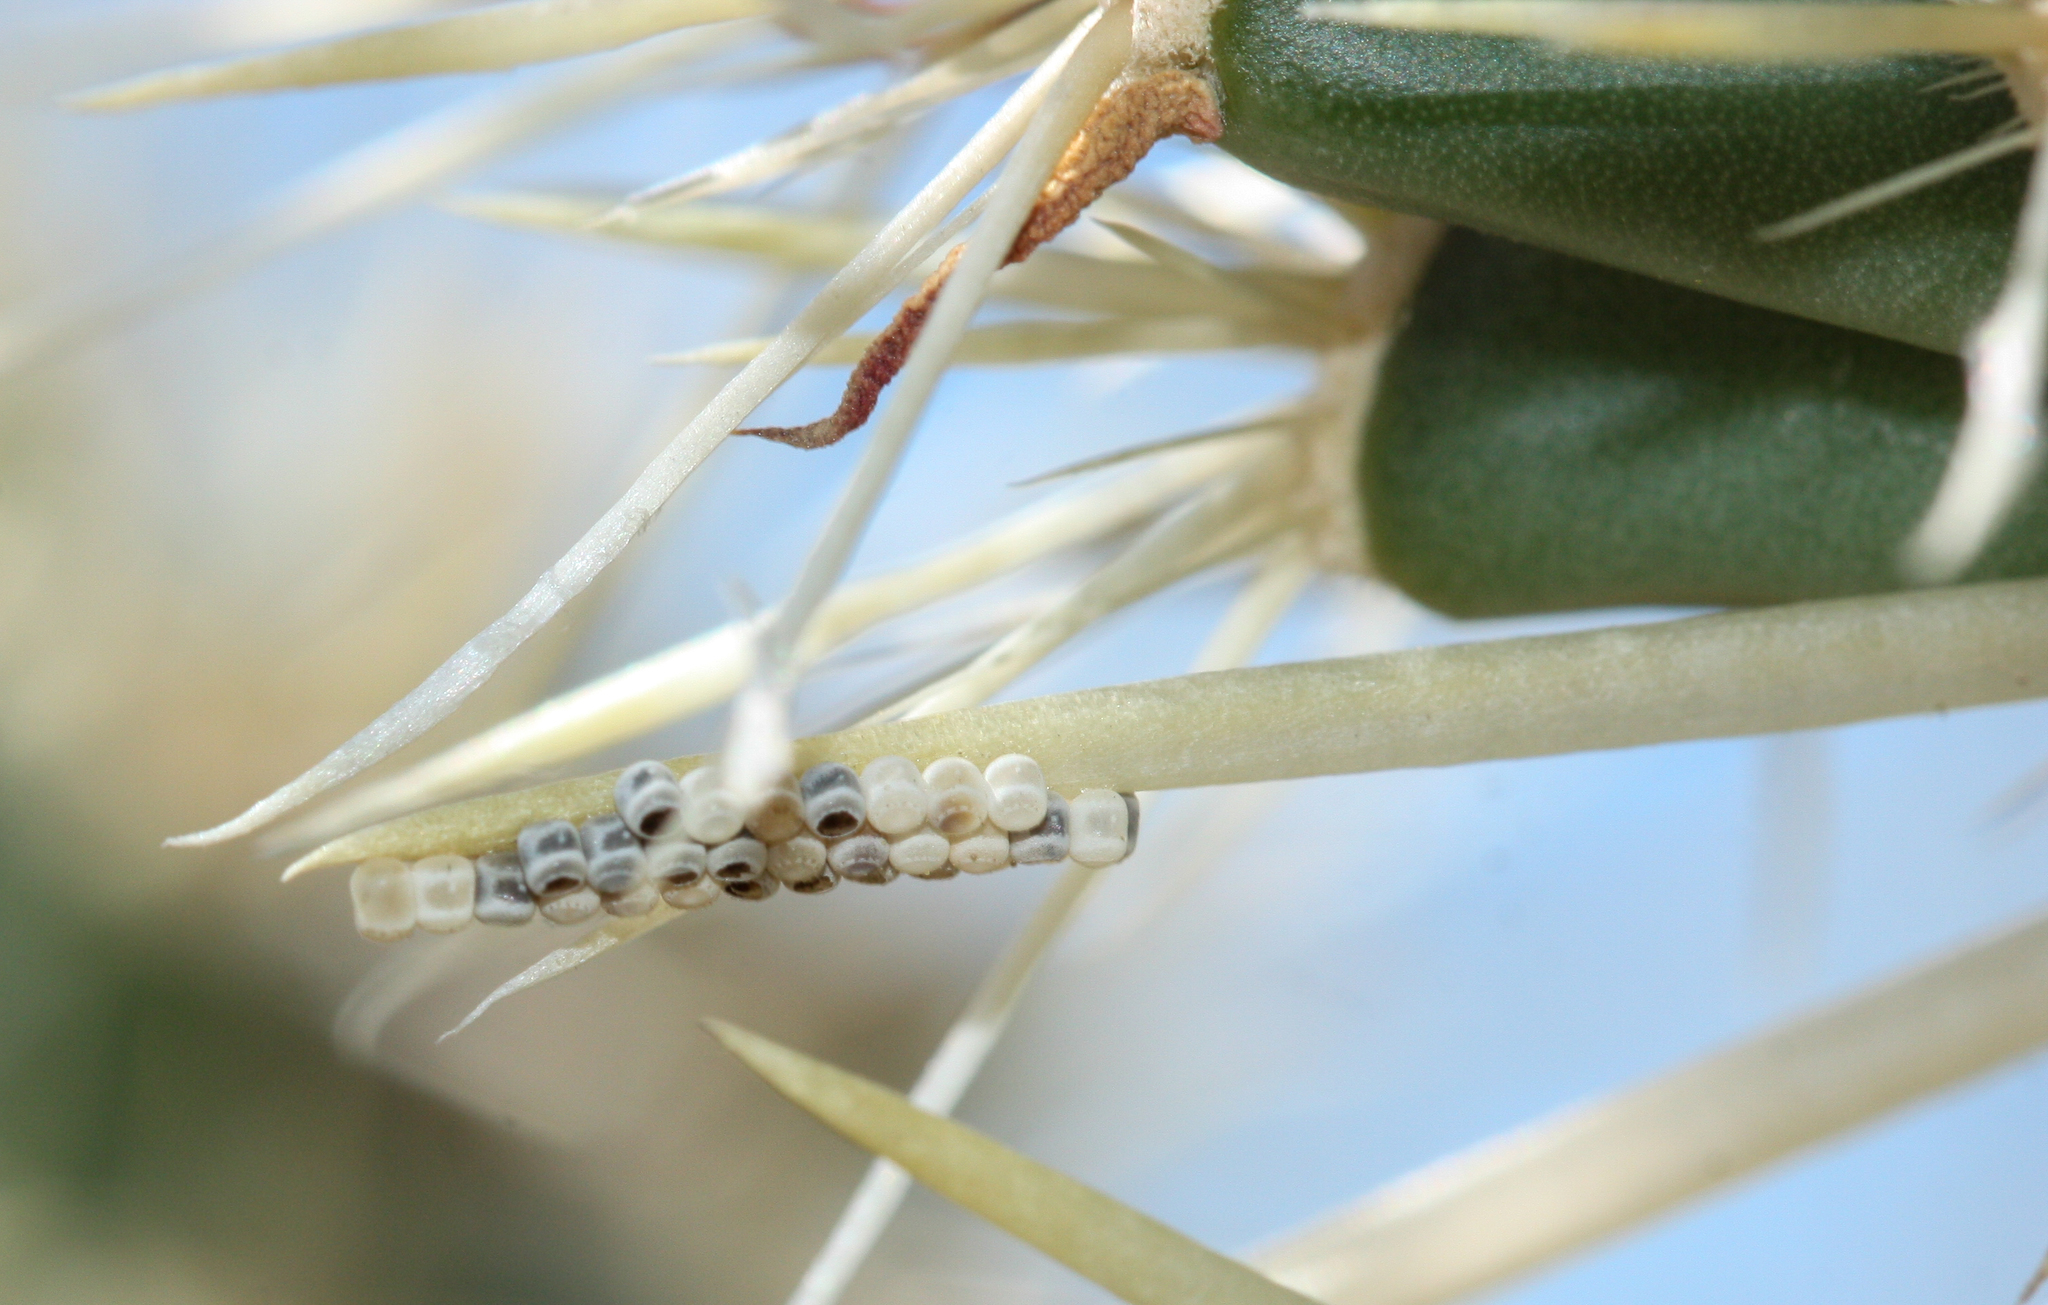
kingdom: Animalia
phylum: Arthropoda
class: Insecta
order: Hemiptera
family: Pentatomidae
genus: Chlorochroa
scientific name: Chlorochroa opuntiae
